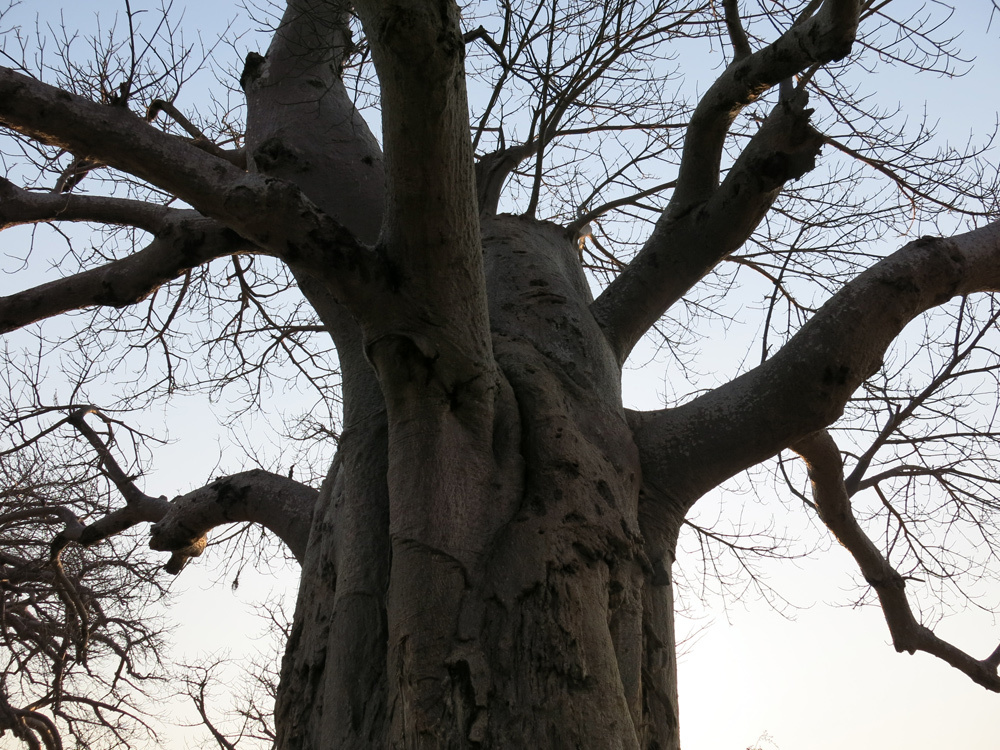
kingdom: Plantae
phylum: Tracheophyta
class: Magnoliopsida
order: Malvales
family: Malvaceae
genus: Adansonia
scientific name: Adansonia digitata
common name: Dead-rat-tree
